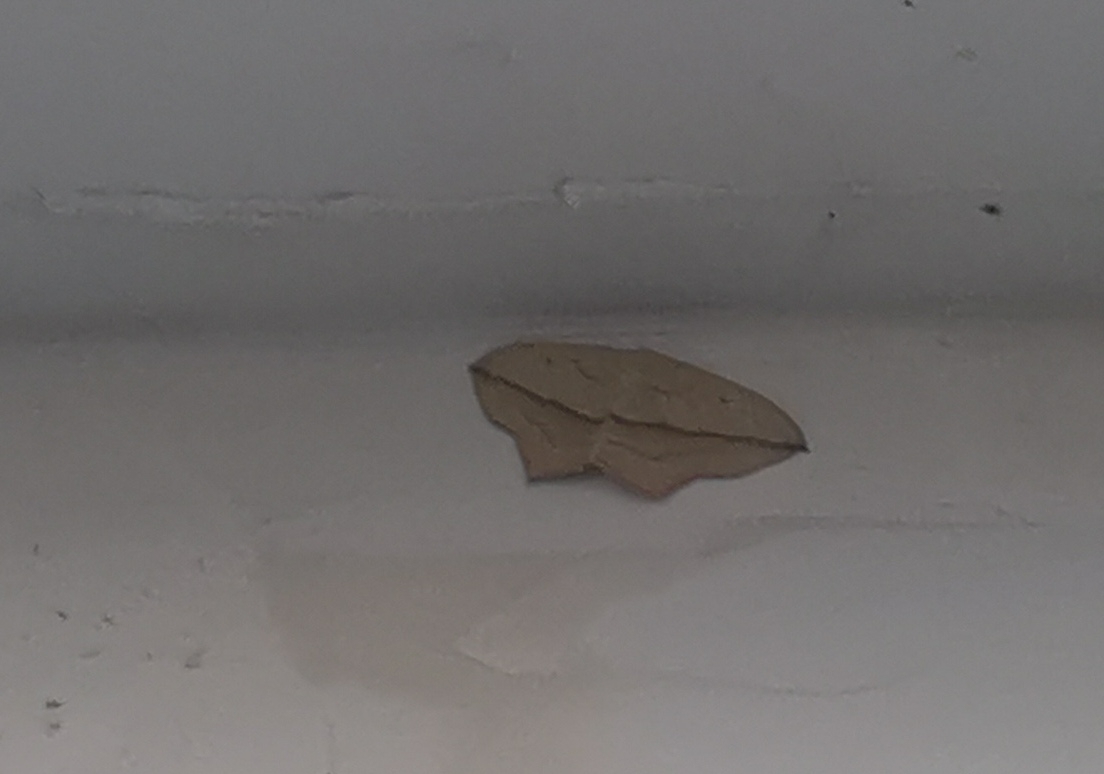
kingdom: Animalia
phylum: Arthropoda
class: Insecta
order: Lepidoptera
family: Geometridae
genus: Timandra
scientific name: Timandra comae
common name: Blood-vein
